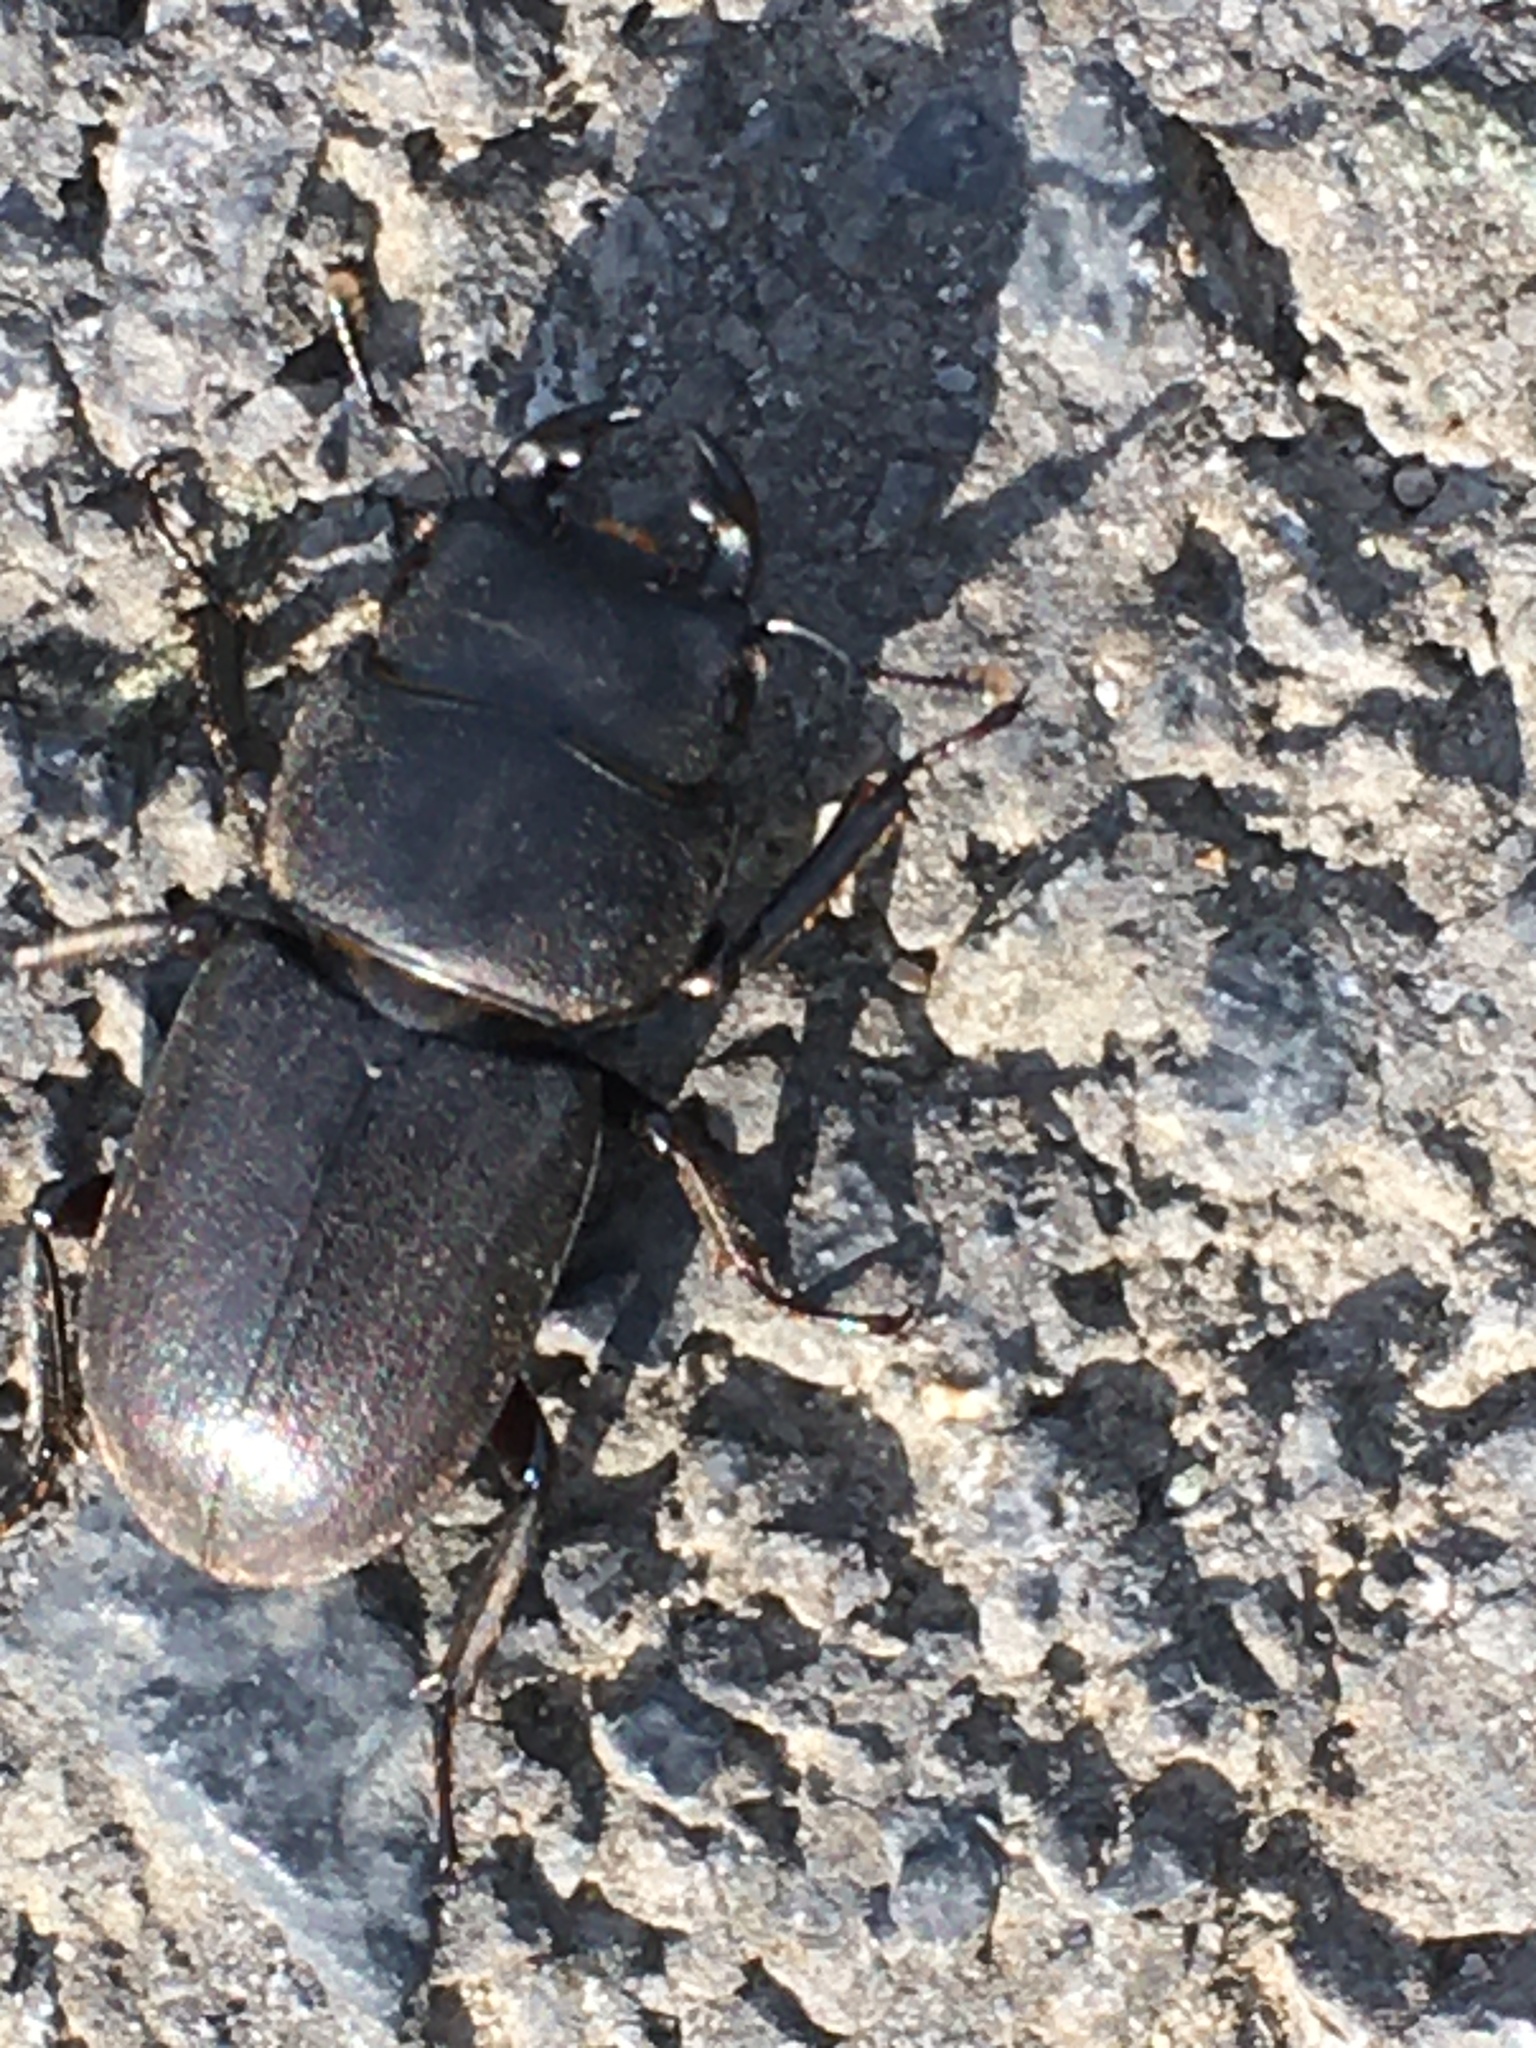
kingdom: Animalia
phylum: Arthropoda
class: Insecta
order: Coleoptera
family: Lucanidae
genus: Dorcus
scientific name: Dorcus parallelipipedus
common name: Lesser stag beetle
